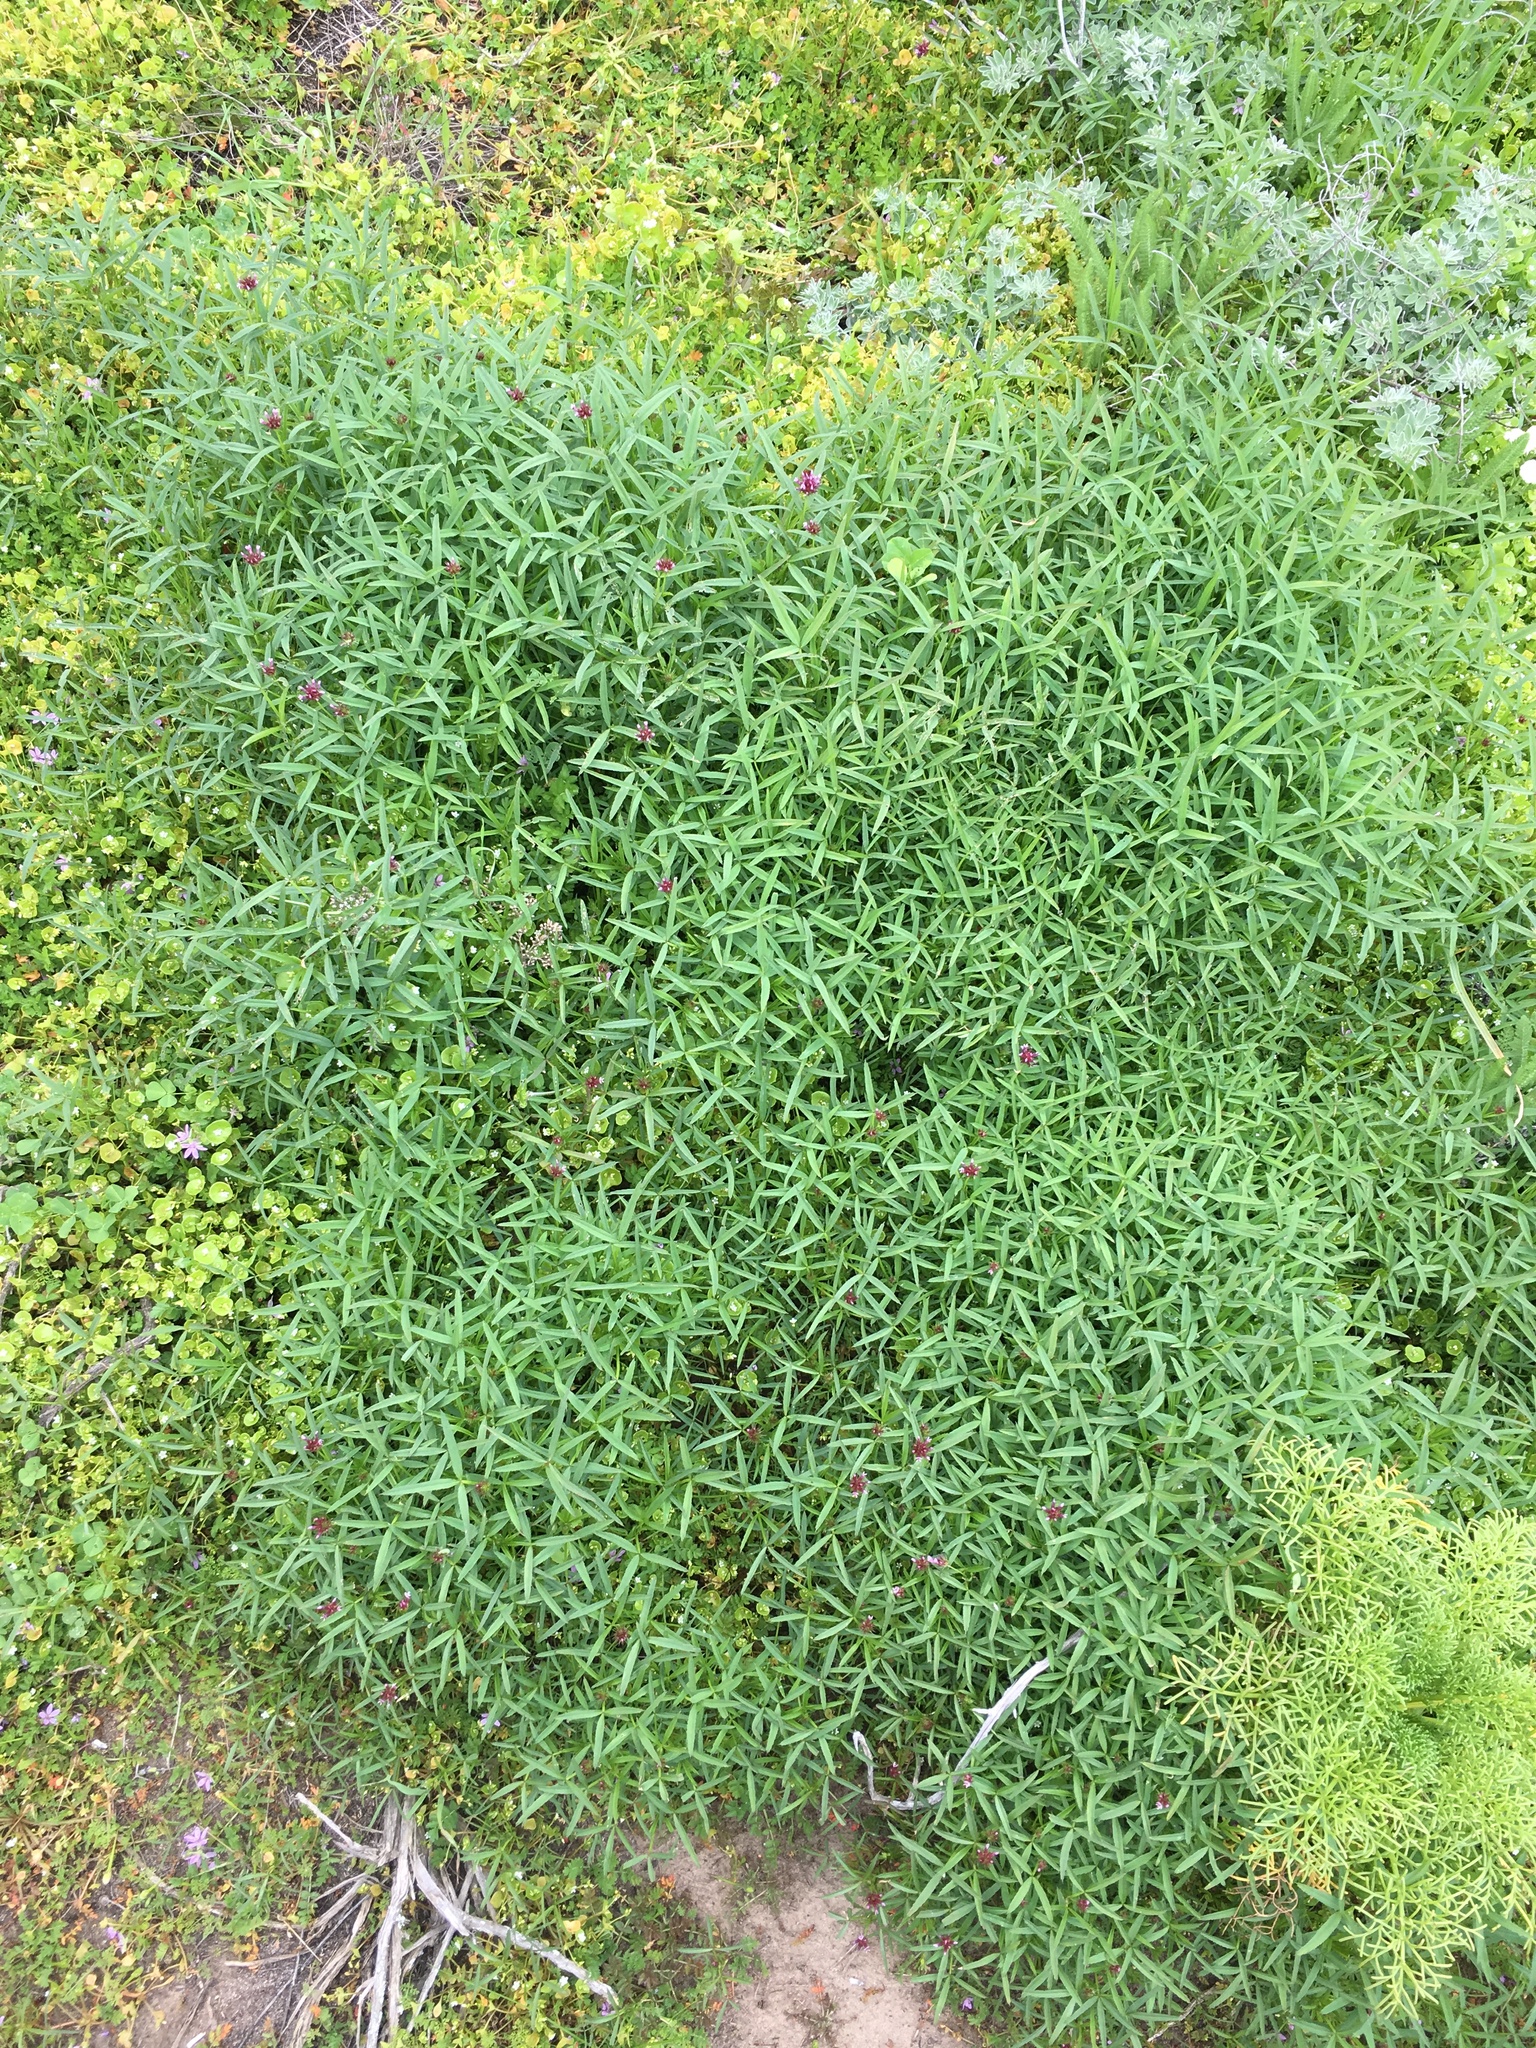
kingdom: Plantae
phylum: Tracheophyta
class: Magnoliopsida
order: Fabales
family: Fabaceae
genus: Trifolium
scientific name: Trifolium willdenovii
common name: Tomcat clover
